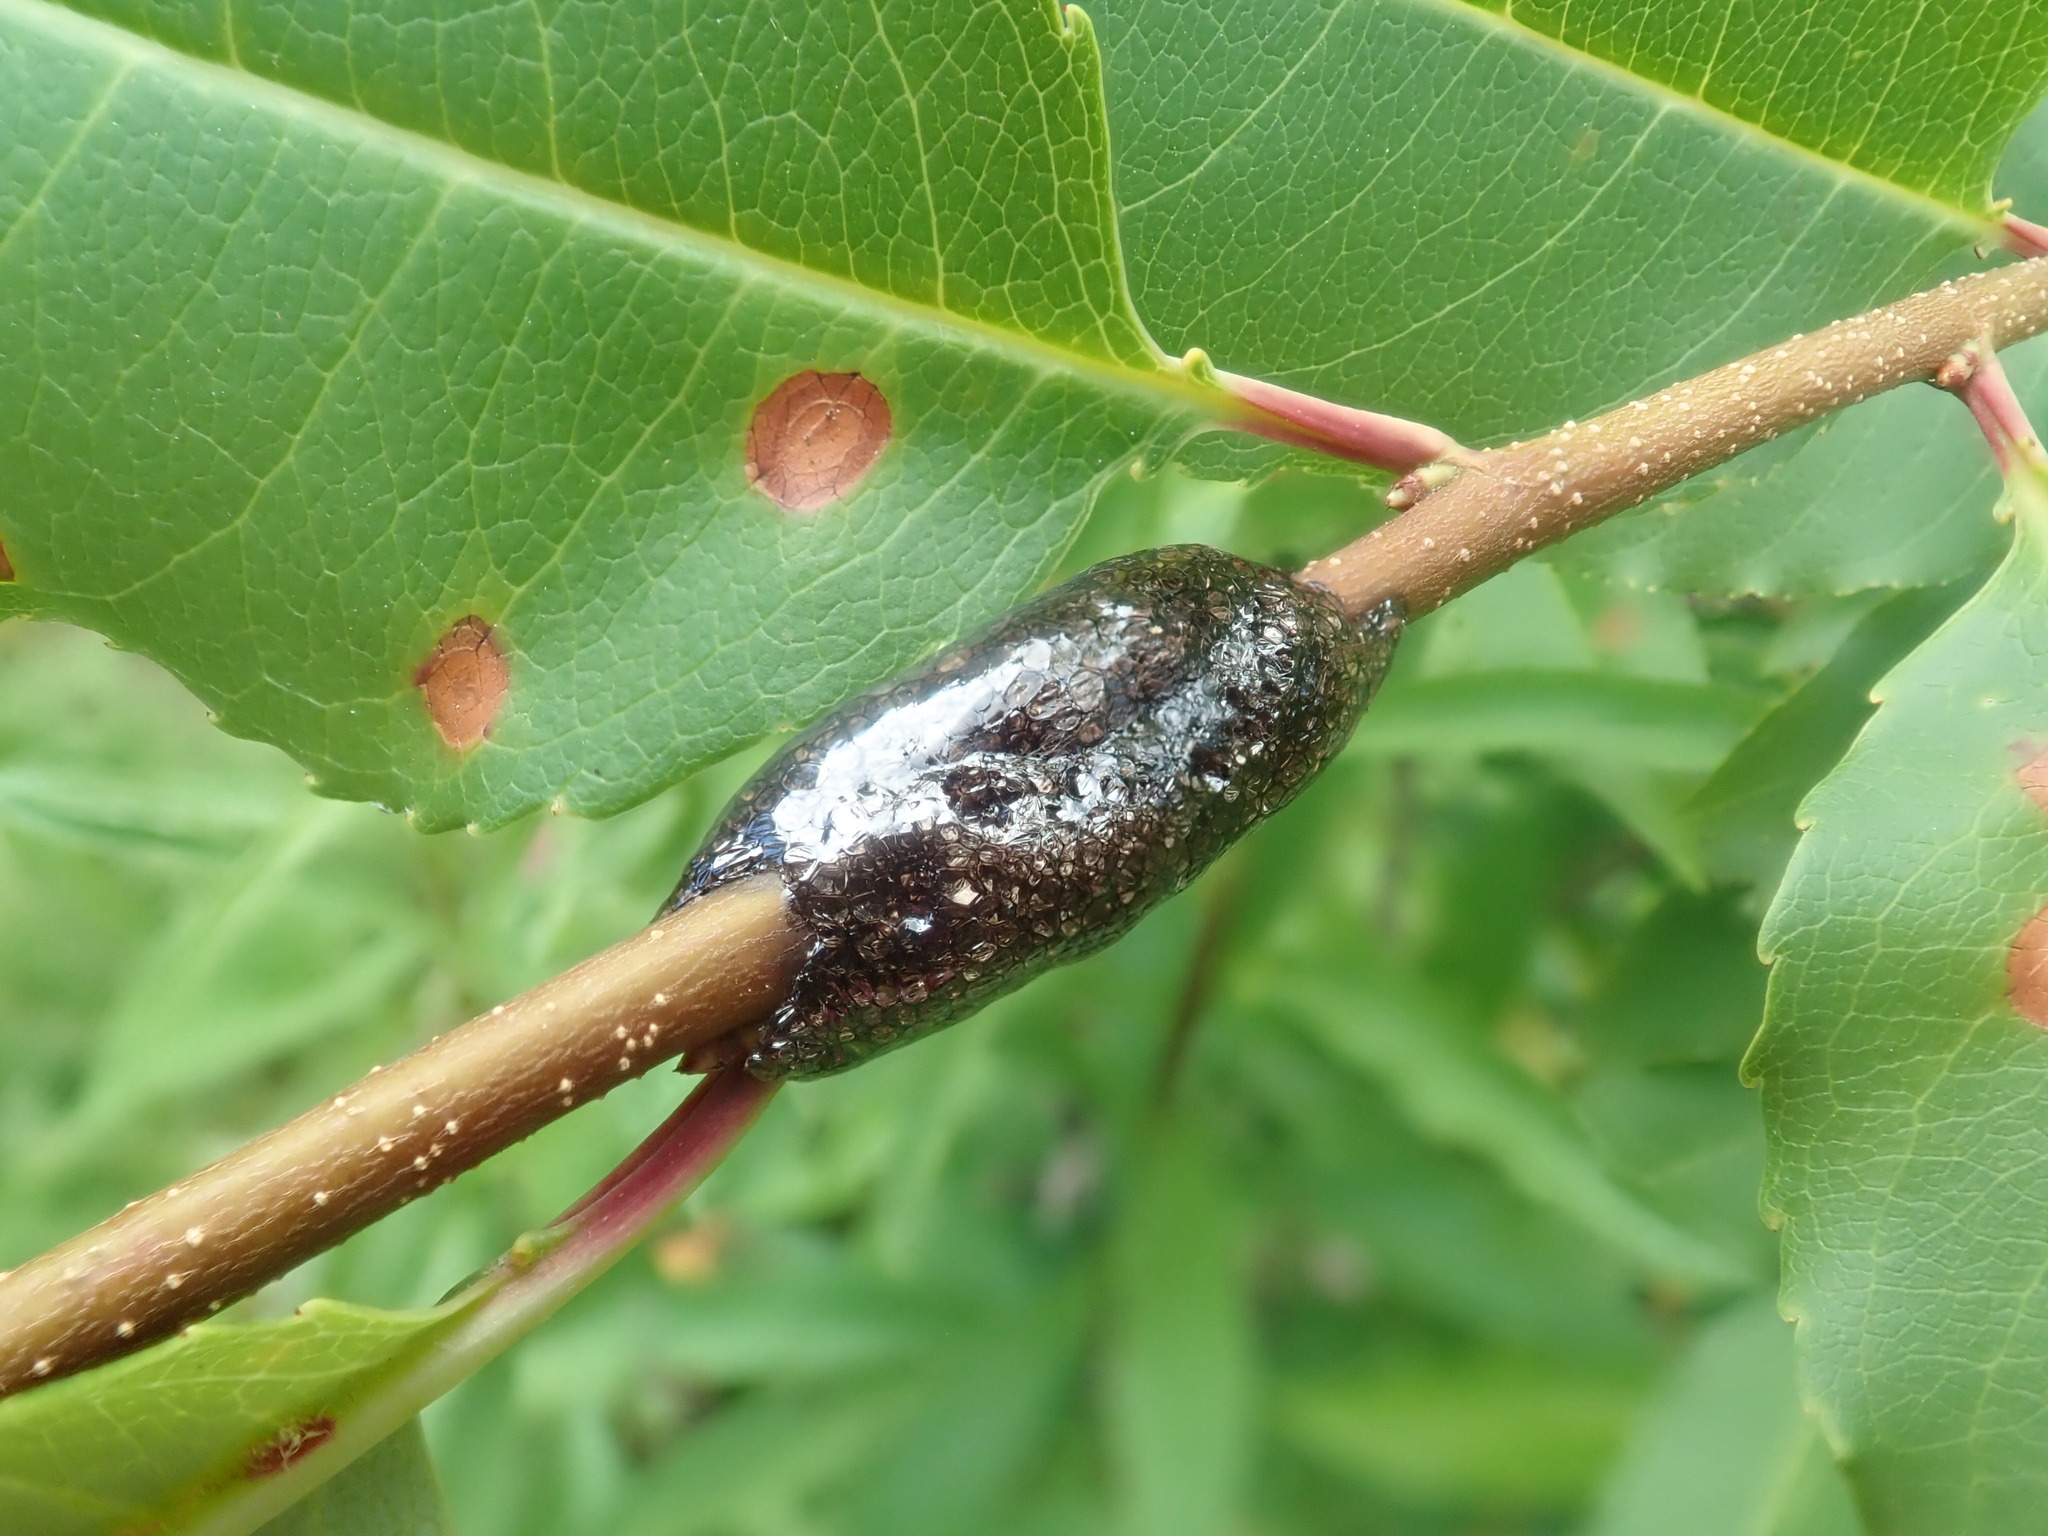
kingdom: Animalia
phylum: Arthropoda
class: Insecta
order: Lepidoptera
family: Lasiocampidae
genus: Malacosoma
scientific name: Malacosoma americana
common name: Eastern tent caterpillar moth
